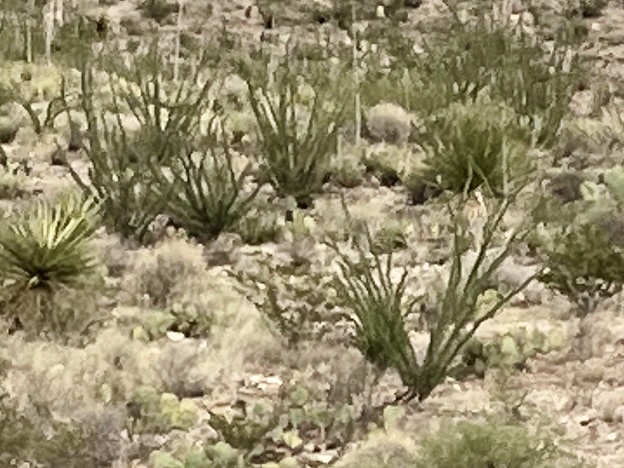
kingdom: Plantae
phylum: Tracheophyta
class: Magnoliopsida
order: Ericales
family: Fouquieriaceae
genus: Fouquieria
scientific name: Fouquieria splendens
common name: Vine-cactus
